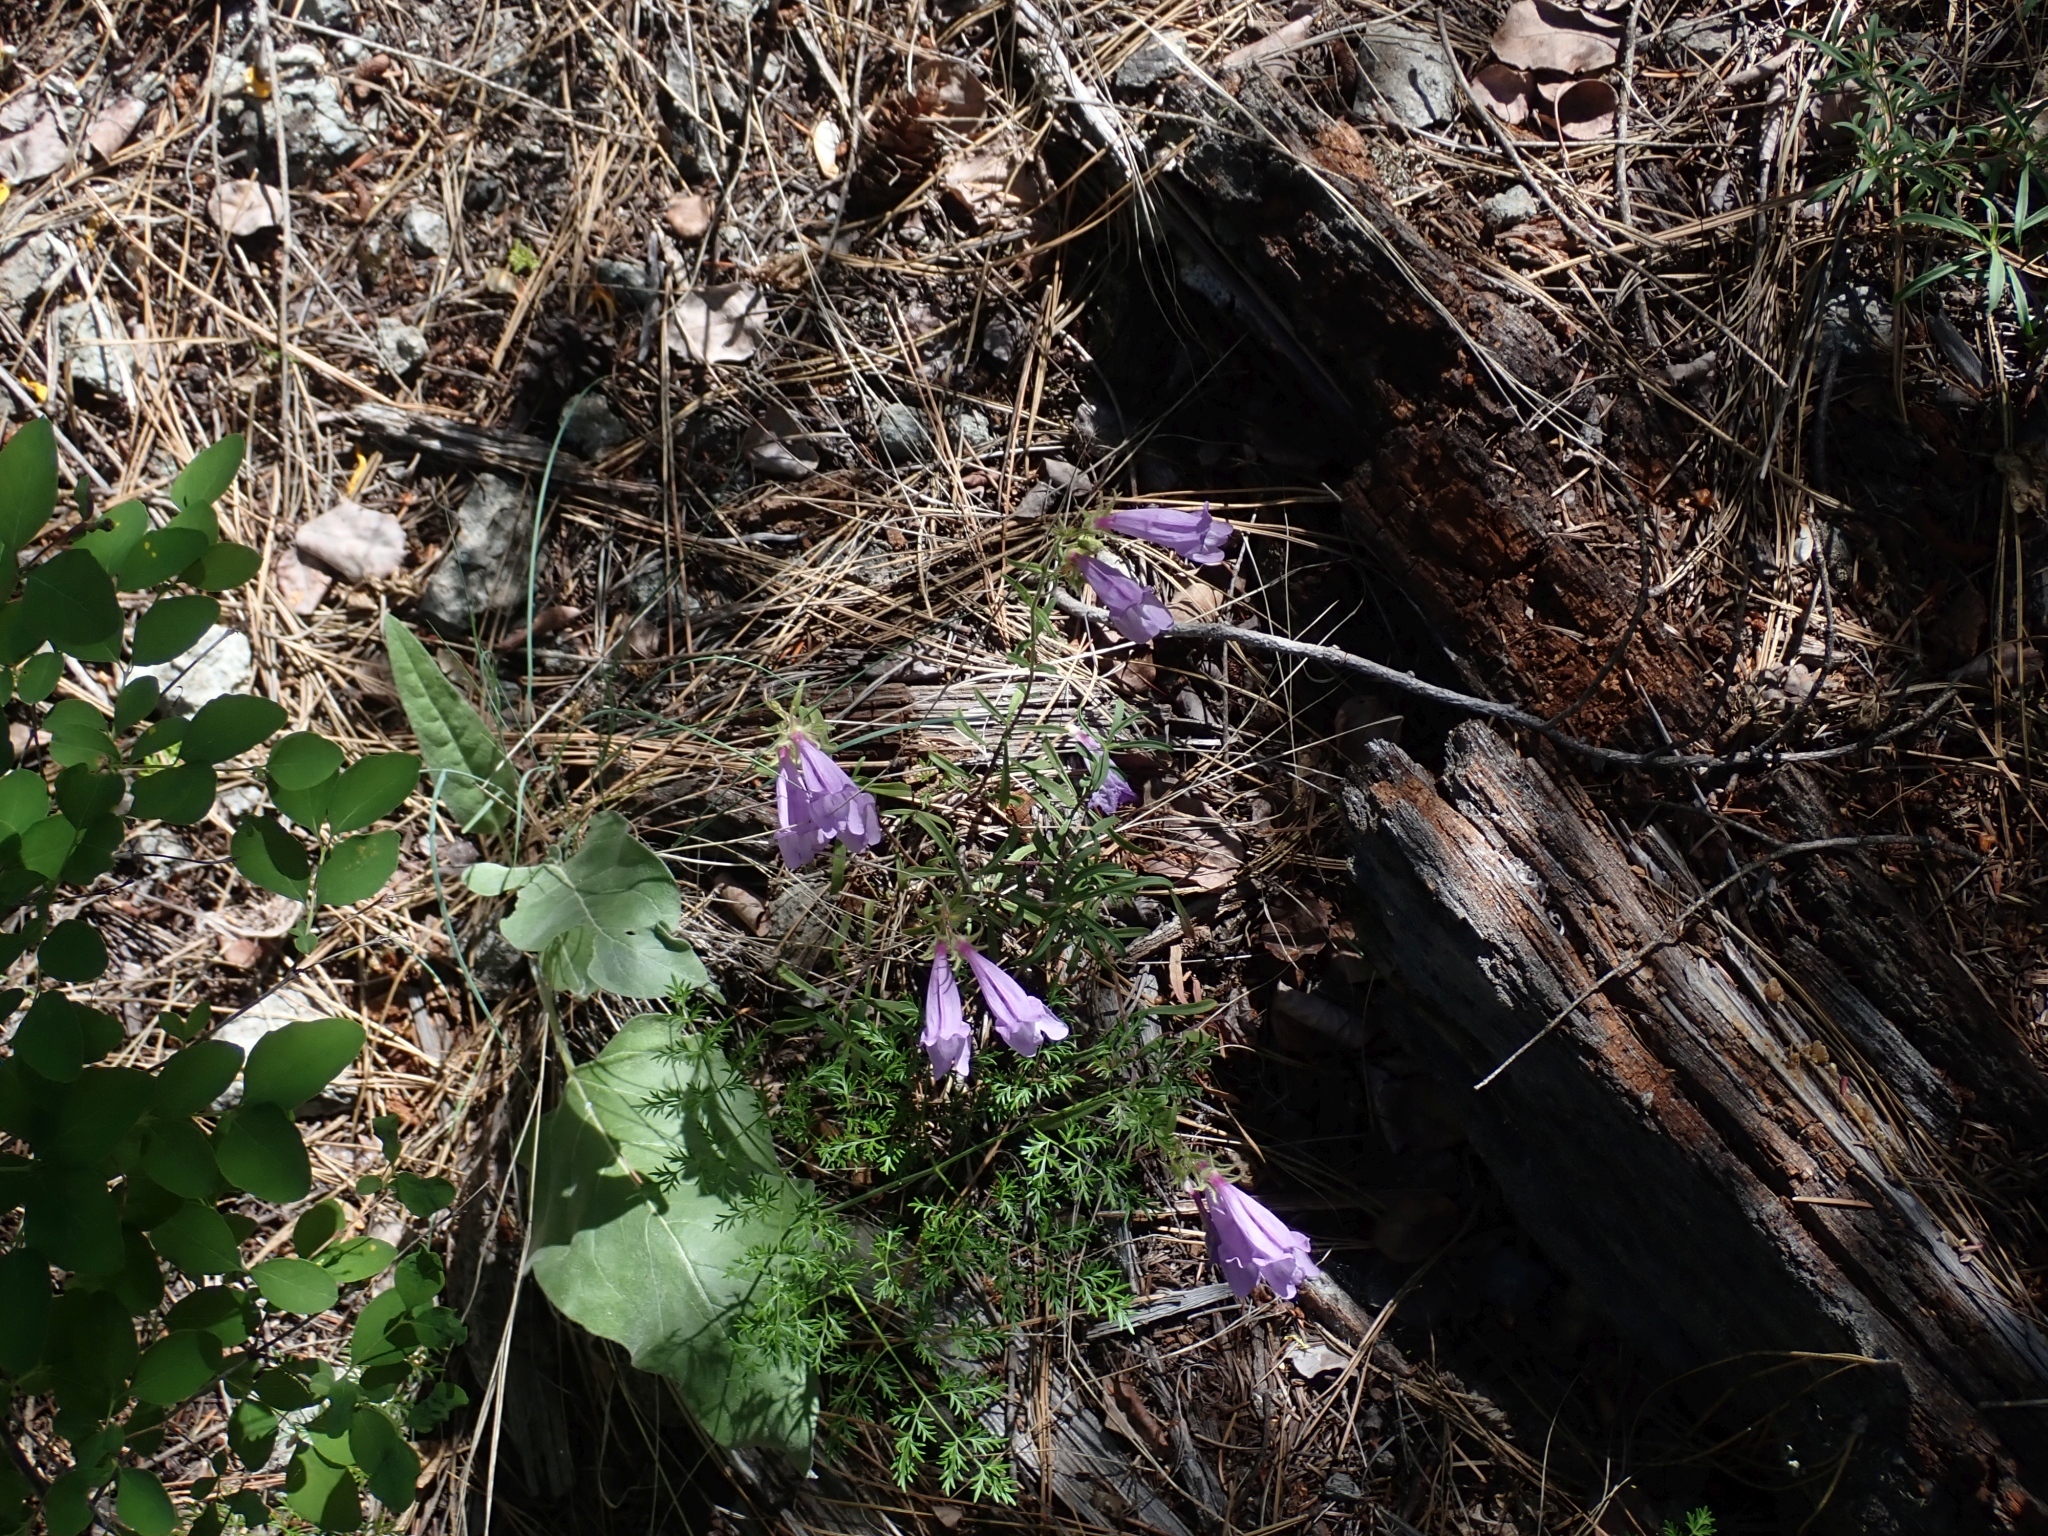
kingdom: Plantae
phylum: Tracheophyta
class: Magnoliopsida
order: Lamiales
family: Plantaginaceae
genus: Penstemon
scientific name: Penstemon fruticosus
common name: Bush penstemon
